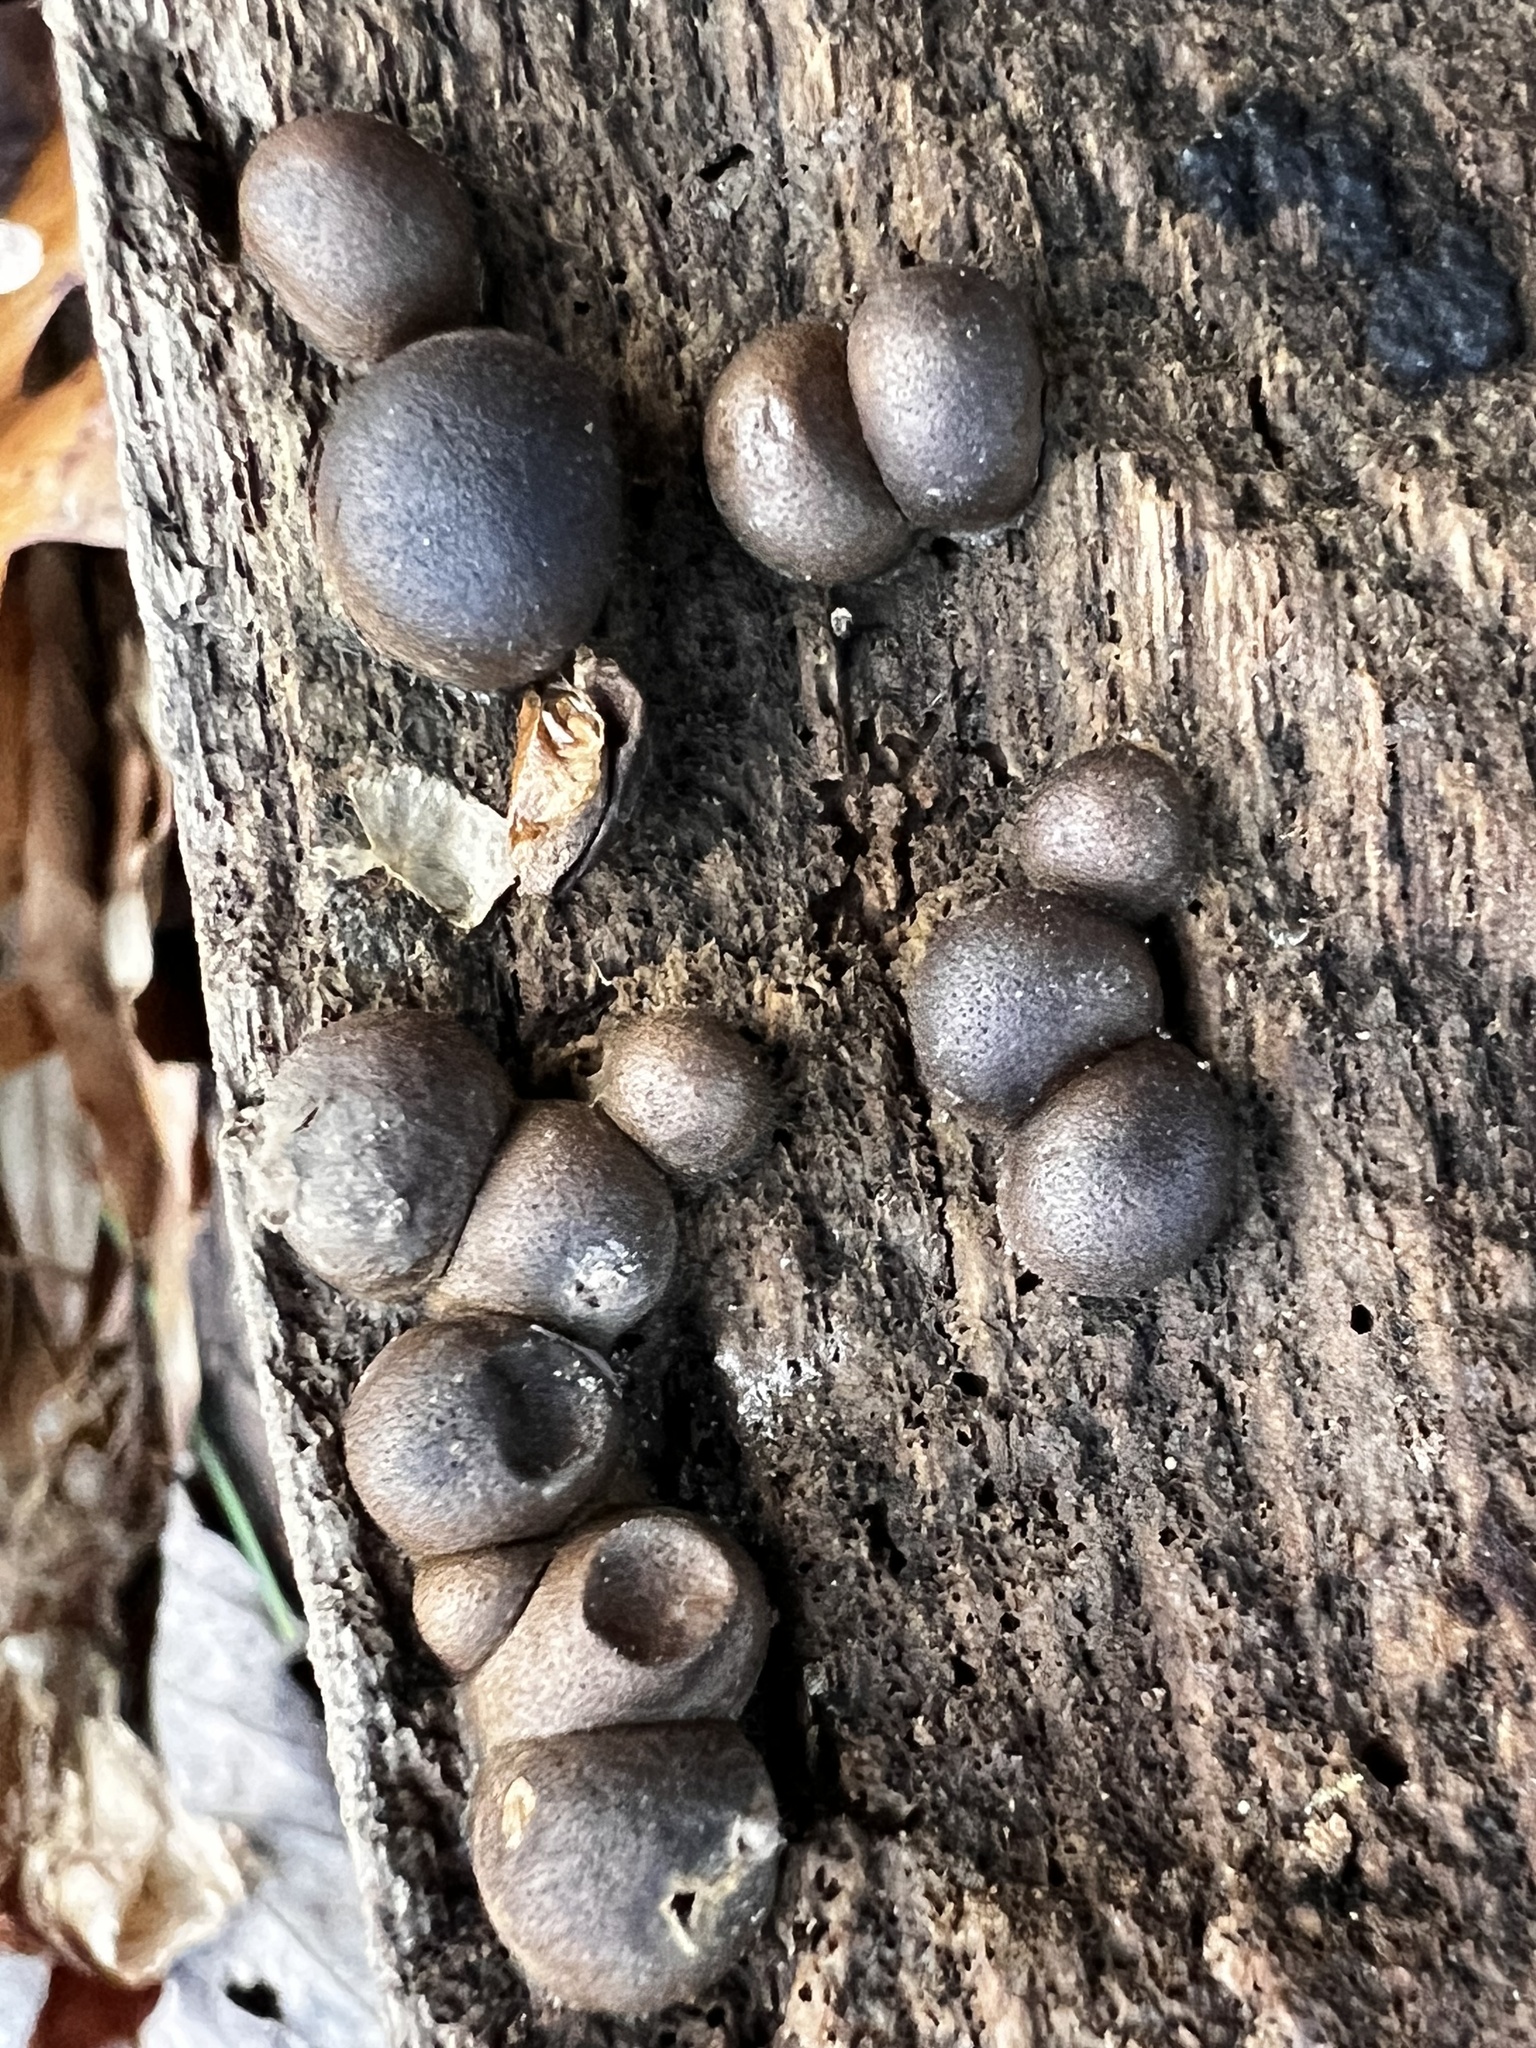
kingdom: Protozoa
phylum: Mycetozoa
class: Myxomycetes
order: Cribrariales
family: Tubiferaceae
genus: Lycogala
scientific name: Lycogala epidendrum
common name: Wolf's milk
